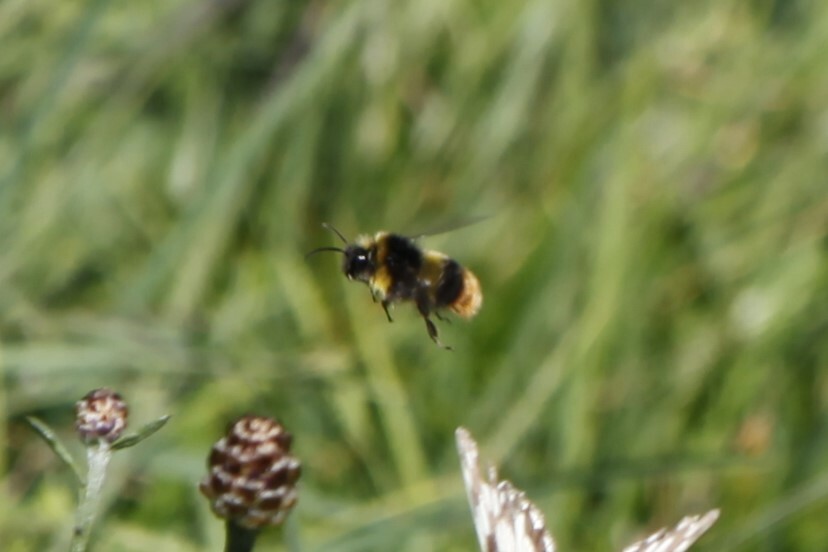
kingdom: Animalia
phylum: Arthropoda
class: Insecta
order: Hymenoptera
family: Apidae
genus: Bombus
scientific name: Bombus soroeensis
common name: Broken-belted humble-bee
